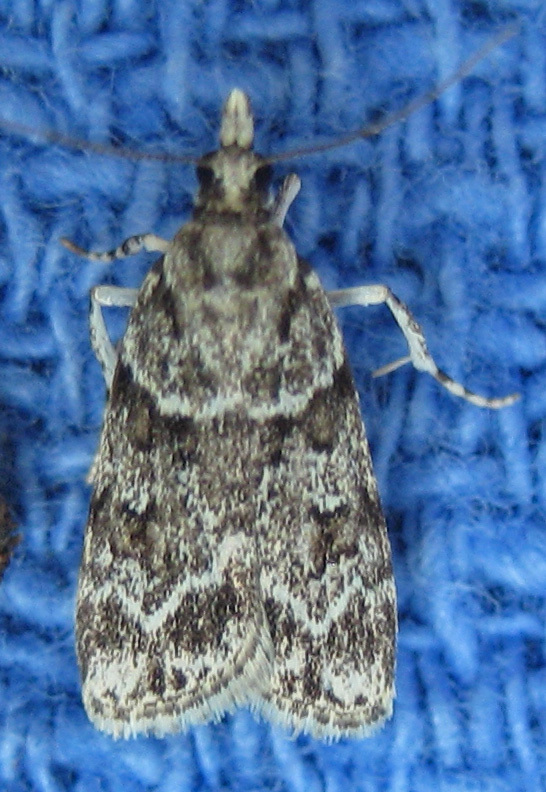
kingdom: Animalia
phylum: Arthropoda
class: Insecta
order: Lepidoptera
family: Crambidae
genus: Scoparia
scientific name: Scoparia biplagialis
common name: Double-striped scoparia moth
